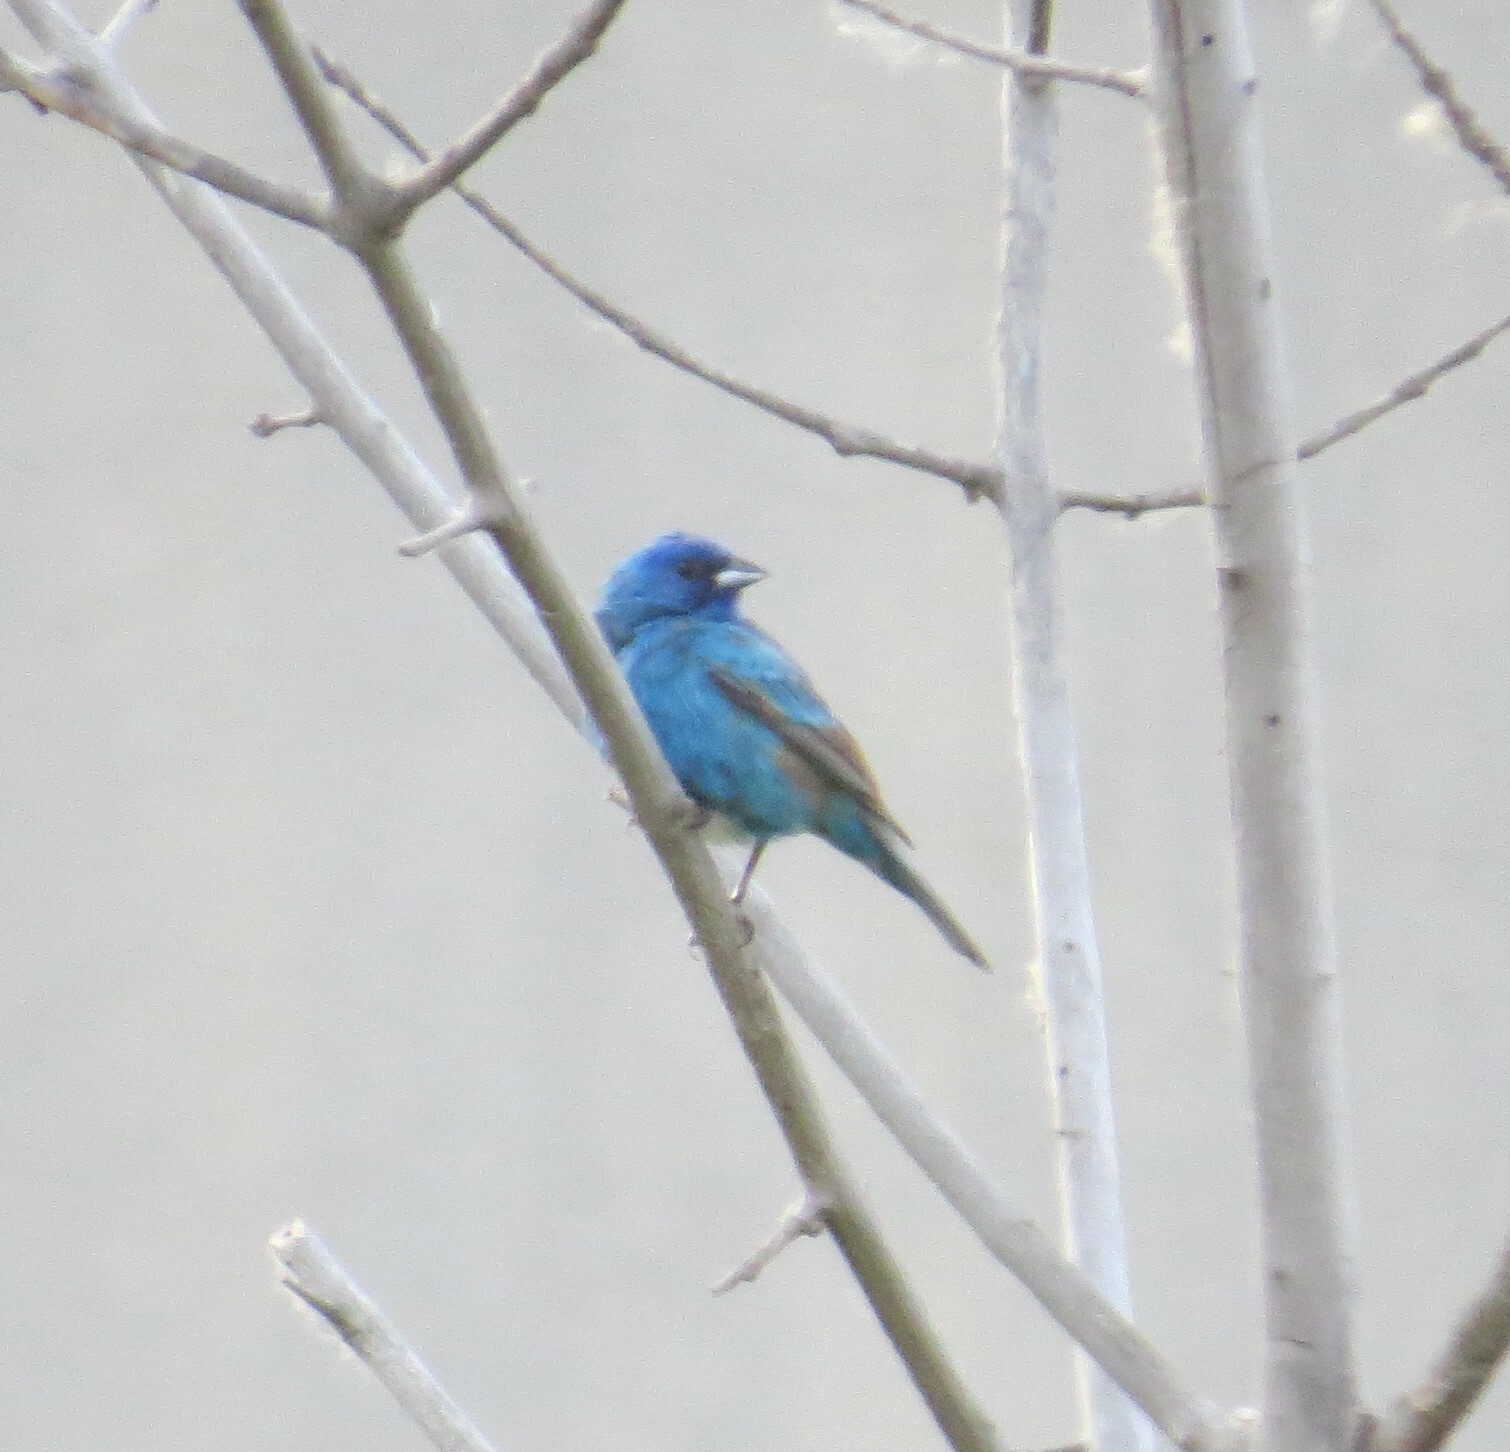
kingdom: Animalia
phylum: Chordata
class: Aves
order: Passeriformes
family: Cardinalidae
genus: Passerina
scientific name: Passerina cyanea
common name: Indigo bunting
